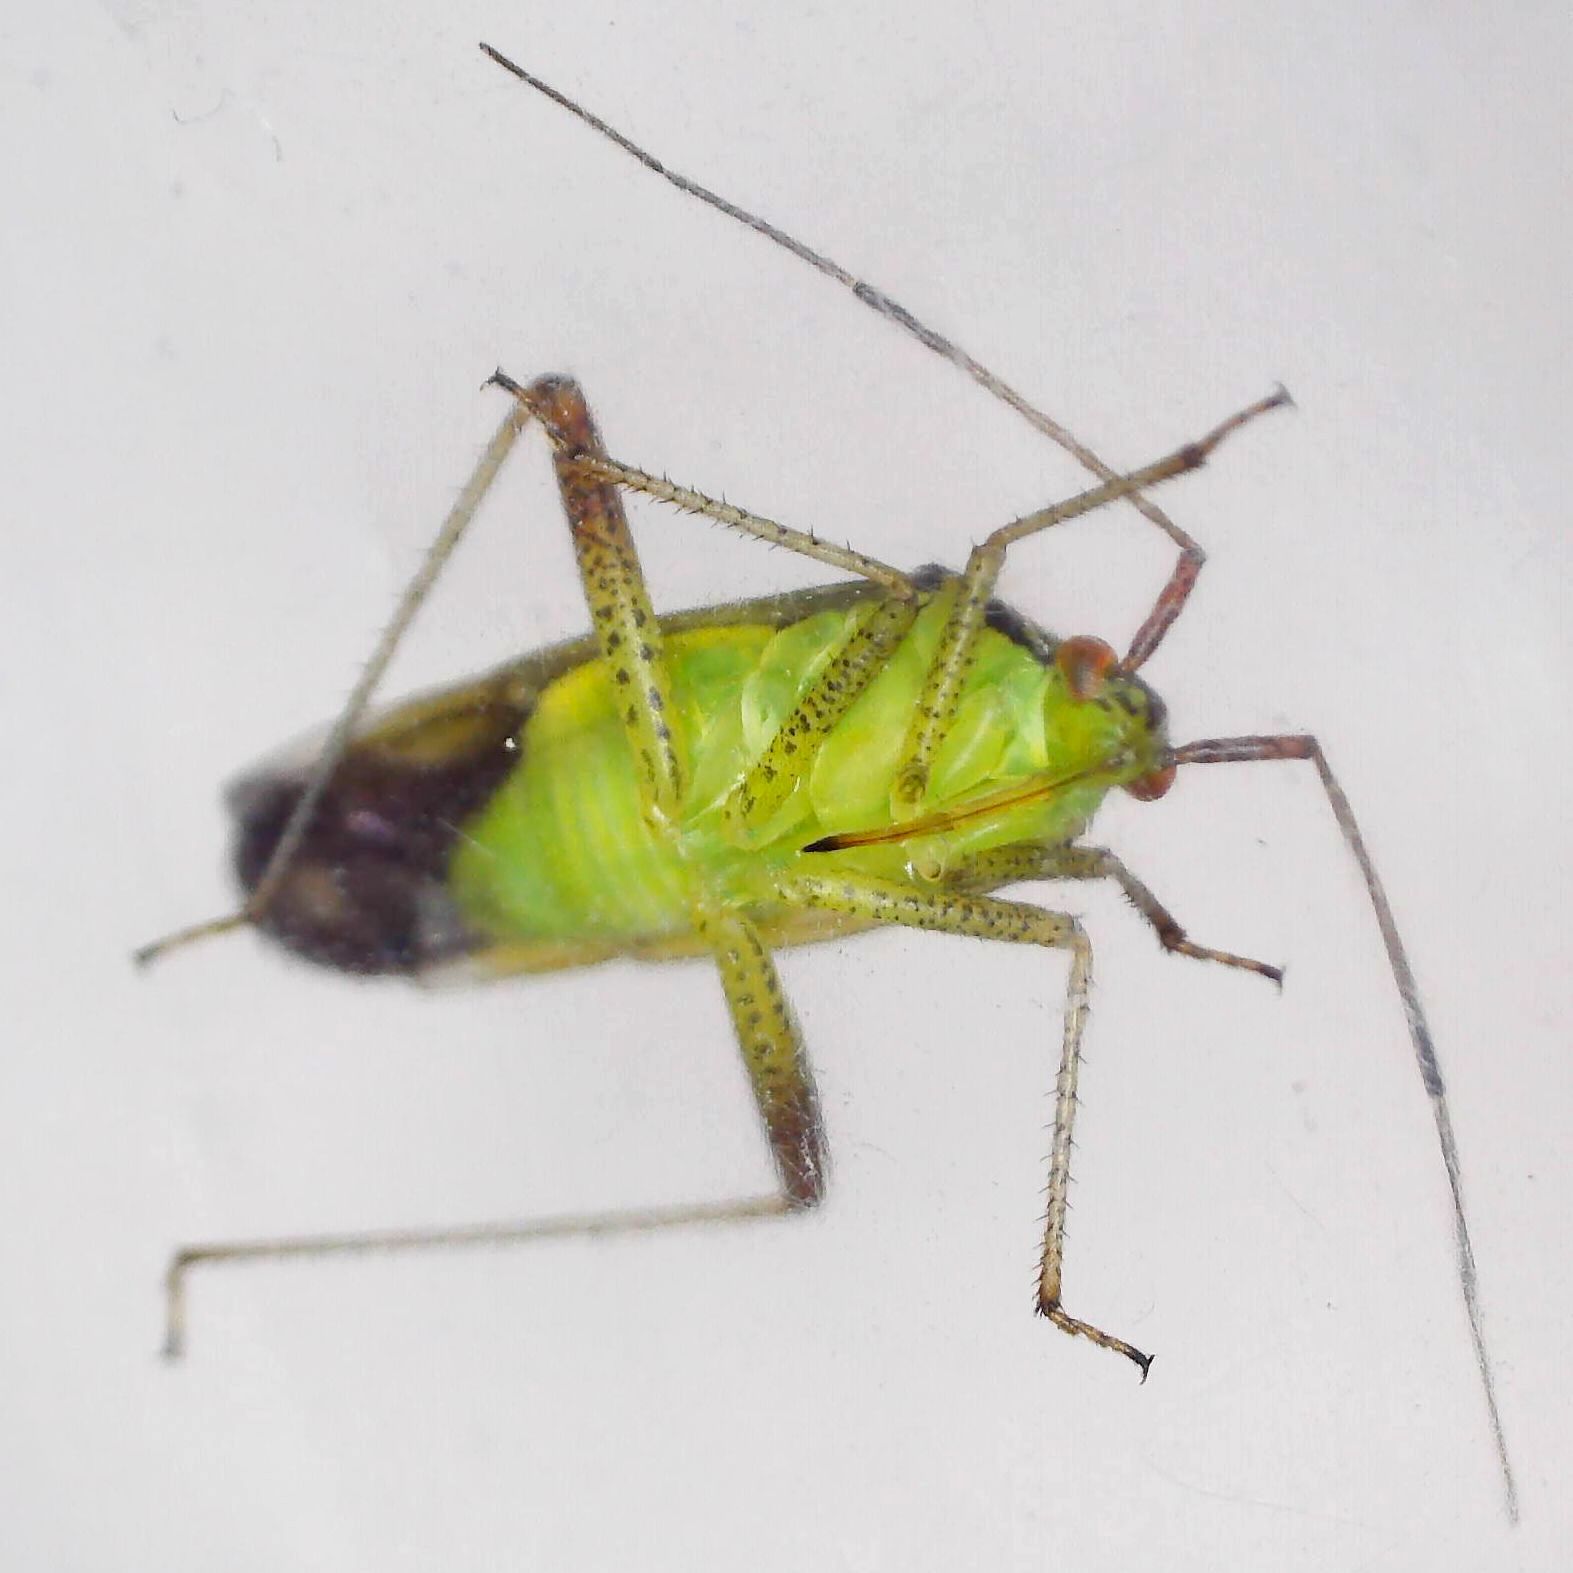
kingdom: Animalia
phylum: Arthropoda
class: Insecta
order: Hemiptera
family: Miridae
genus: Closterotomus
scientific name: Closterotomus trivialis
